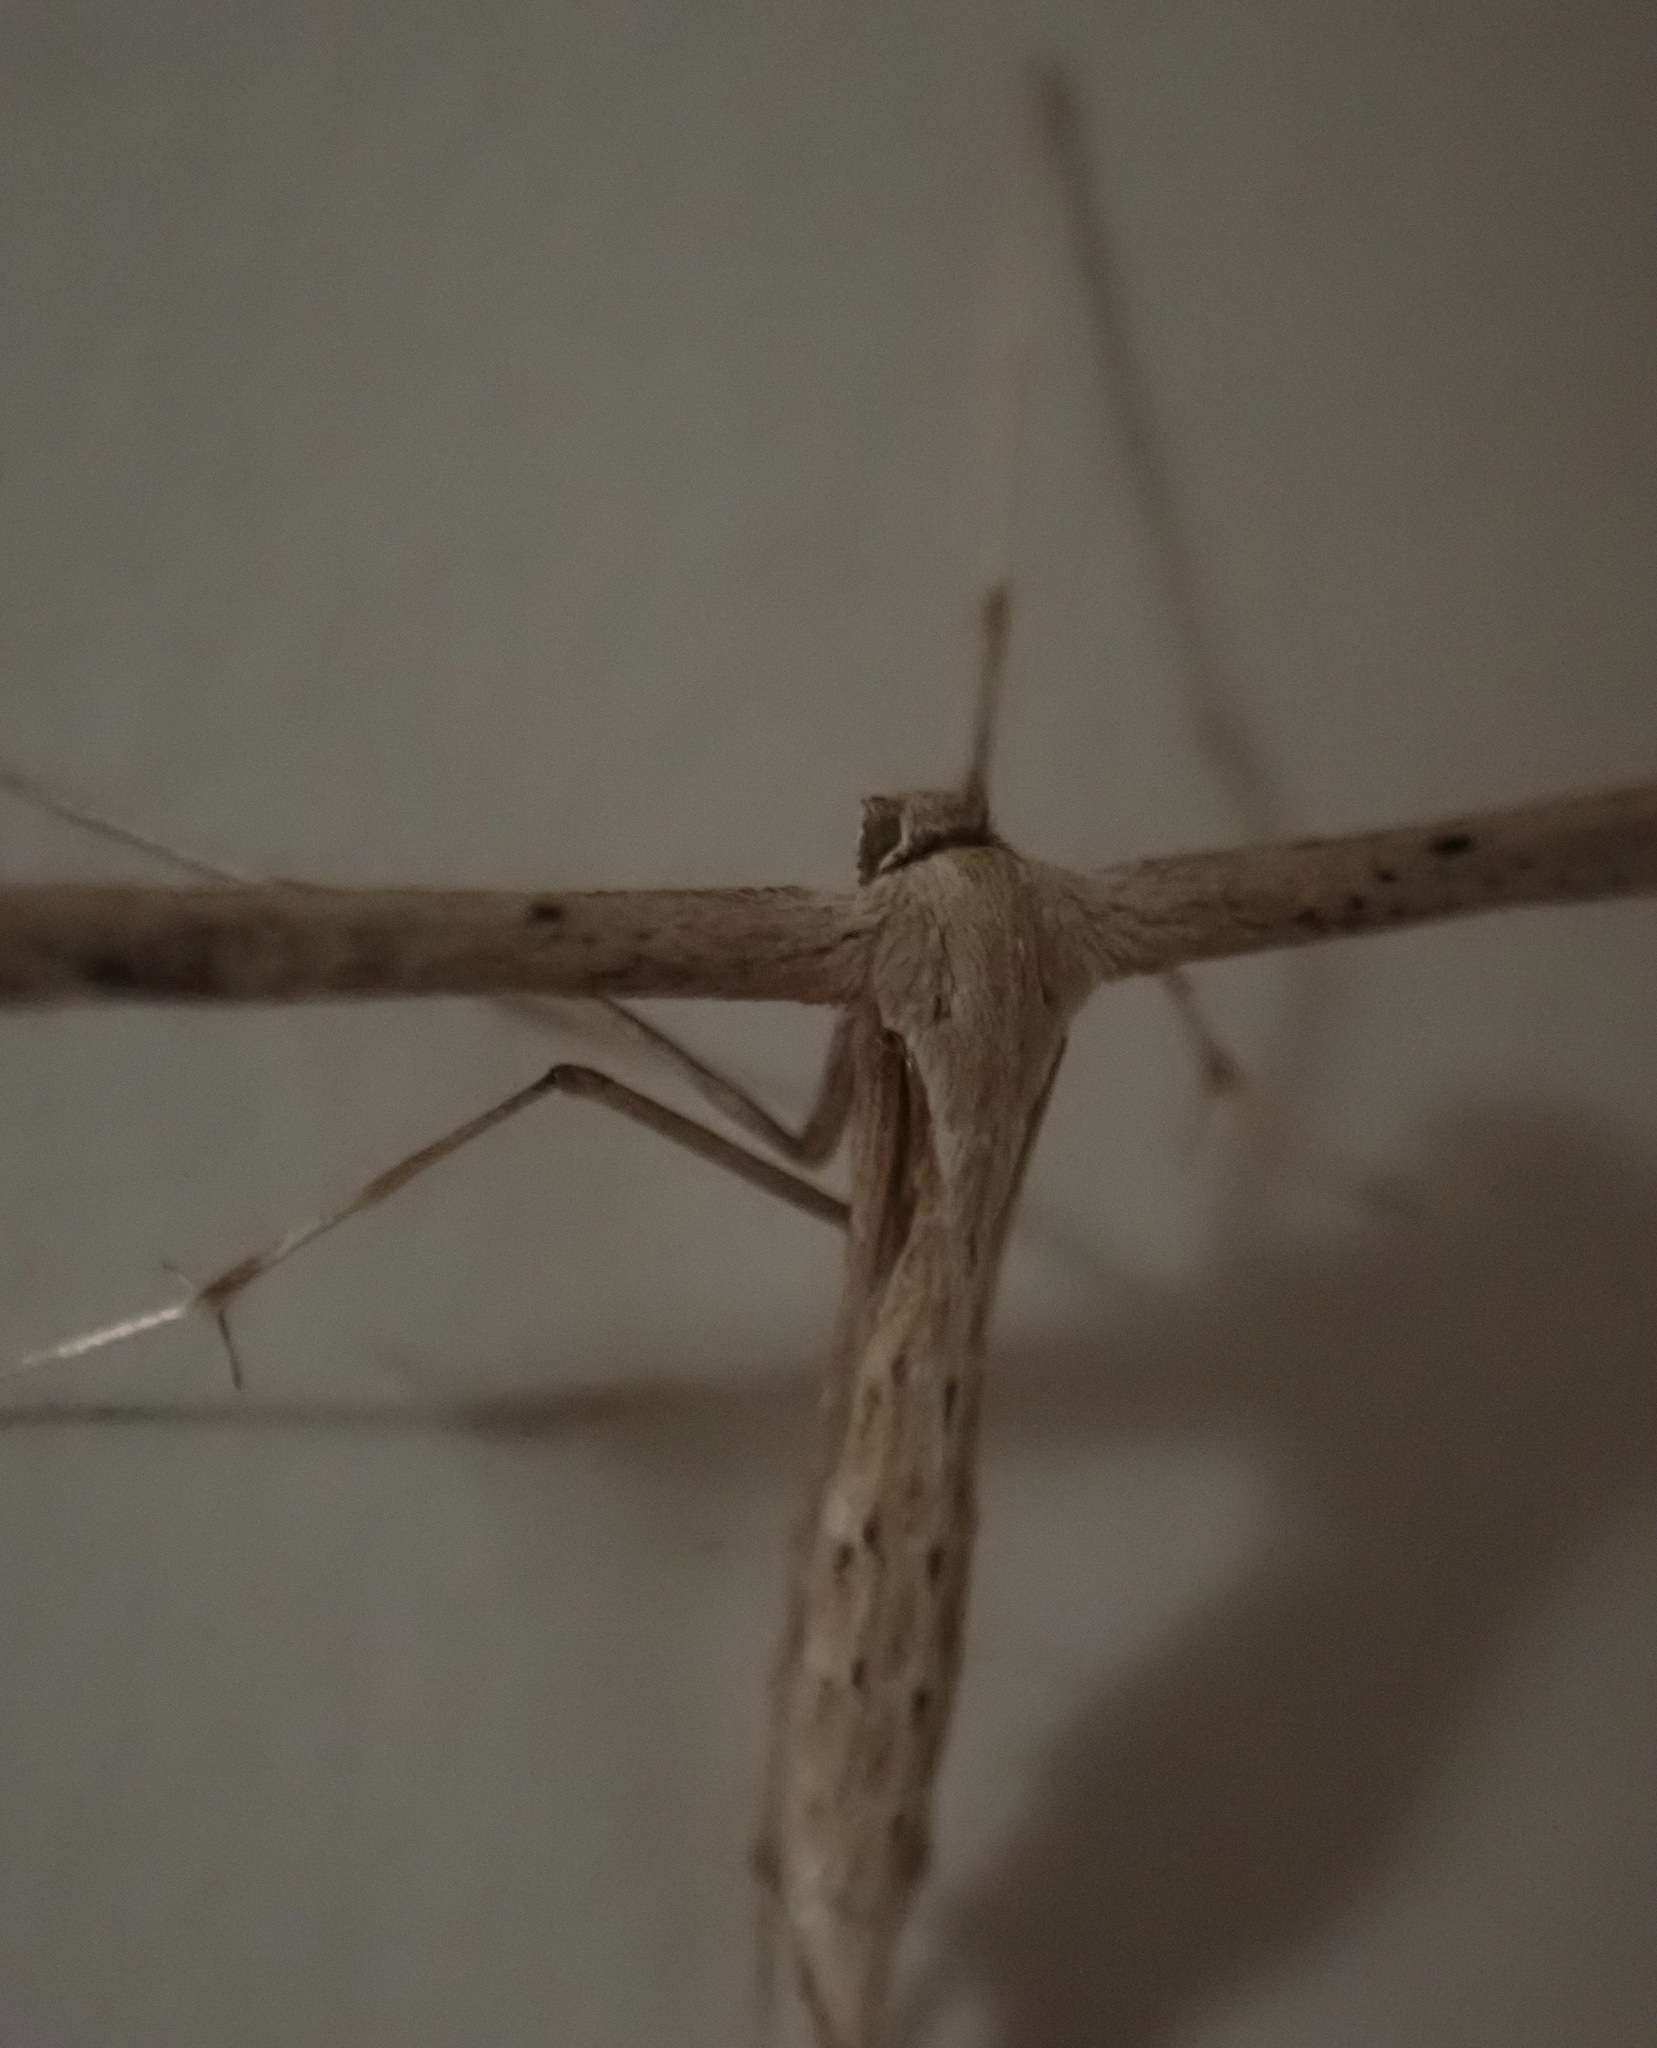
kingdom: Animalia
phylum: Arthropoda
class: Insecta
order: Lepidoptera
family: Pterophoridae
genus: Emmelina
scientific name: Emmelina monodactyla
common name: Common plume
